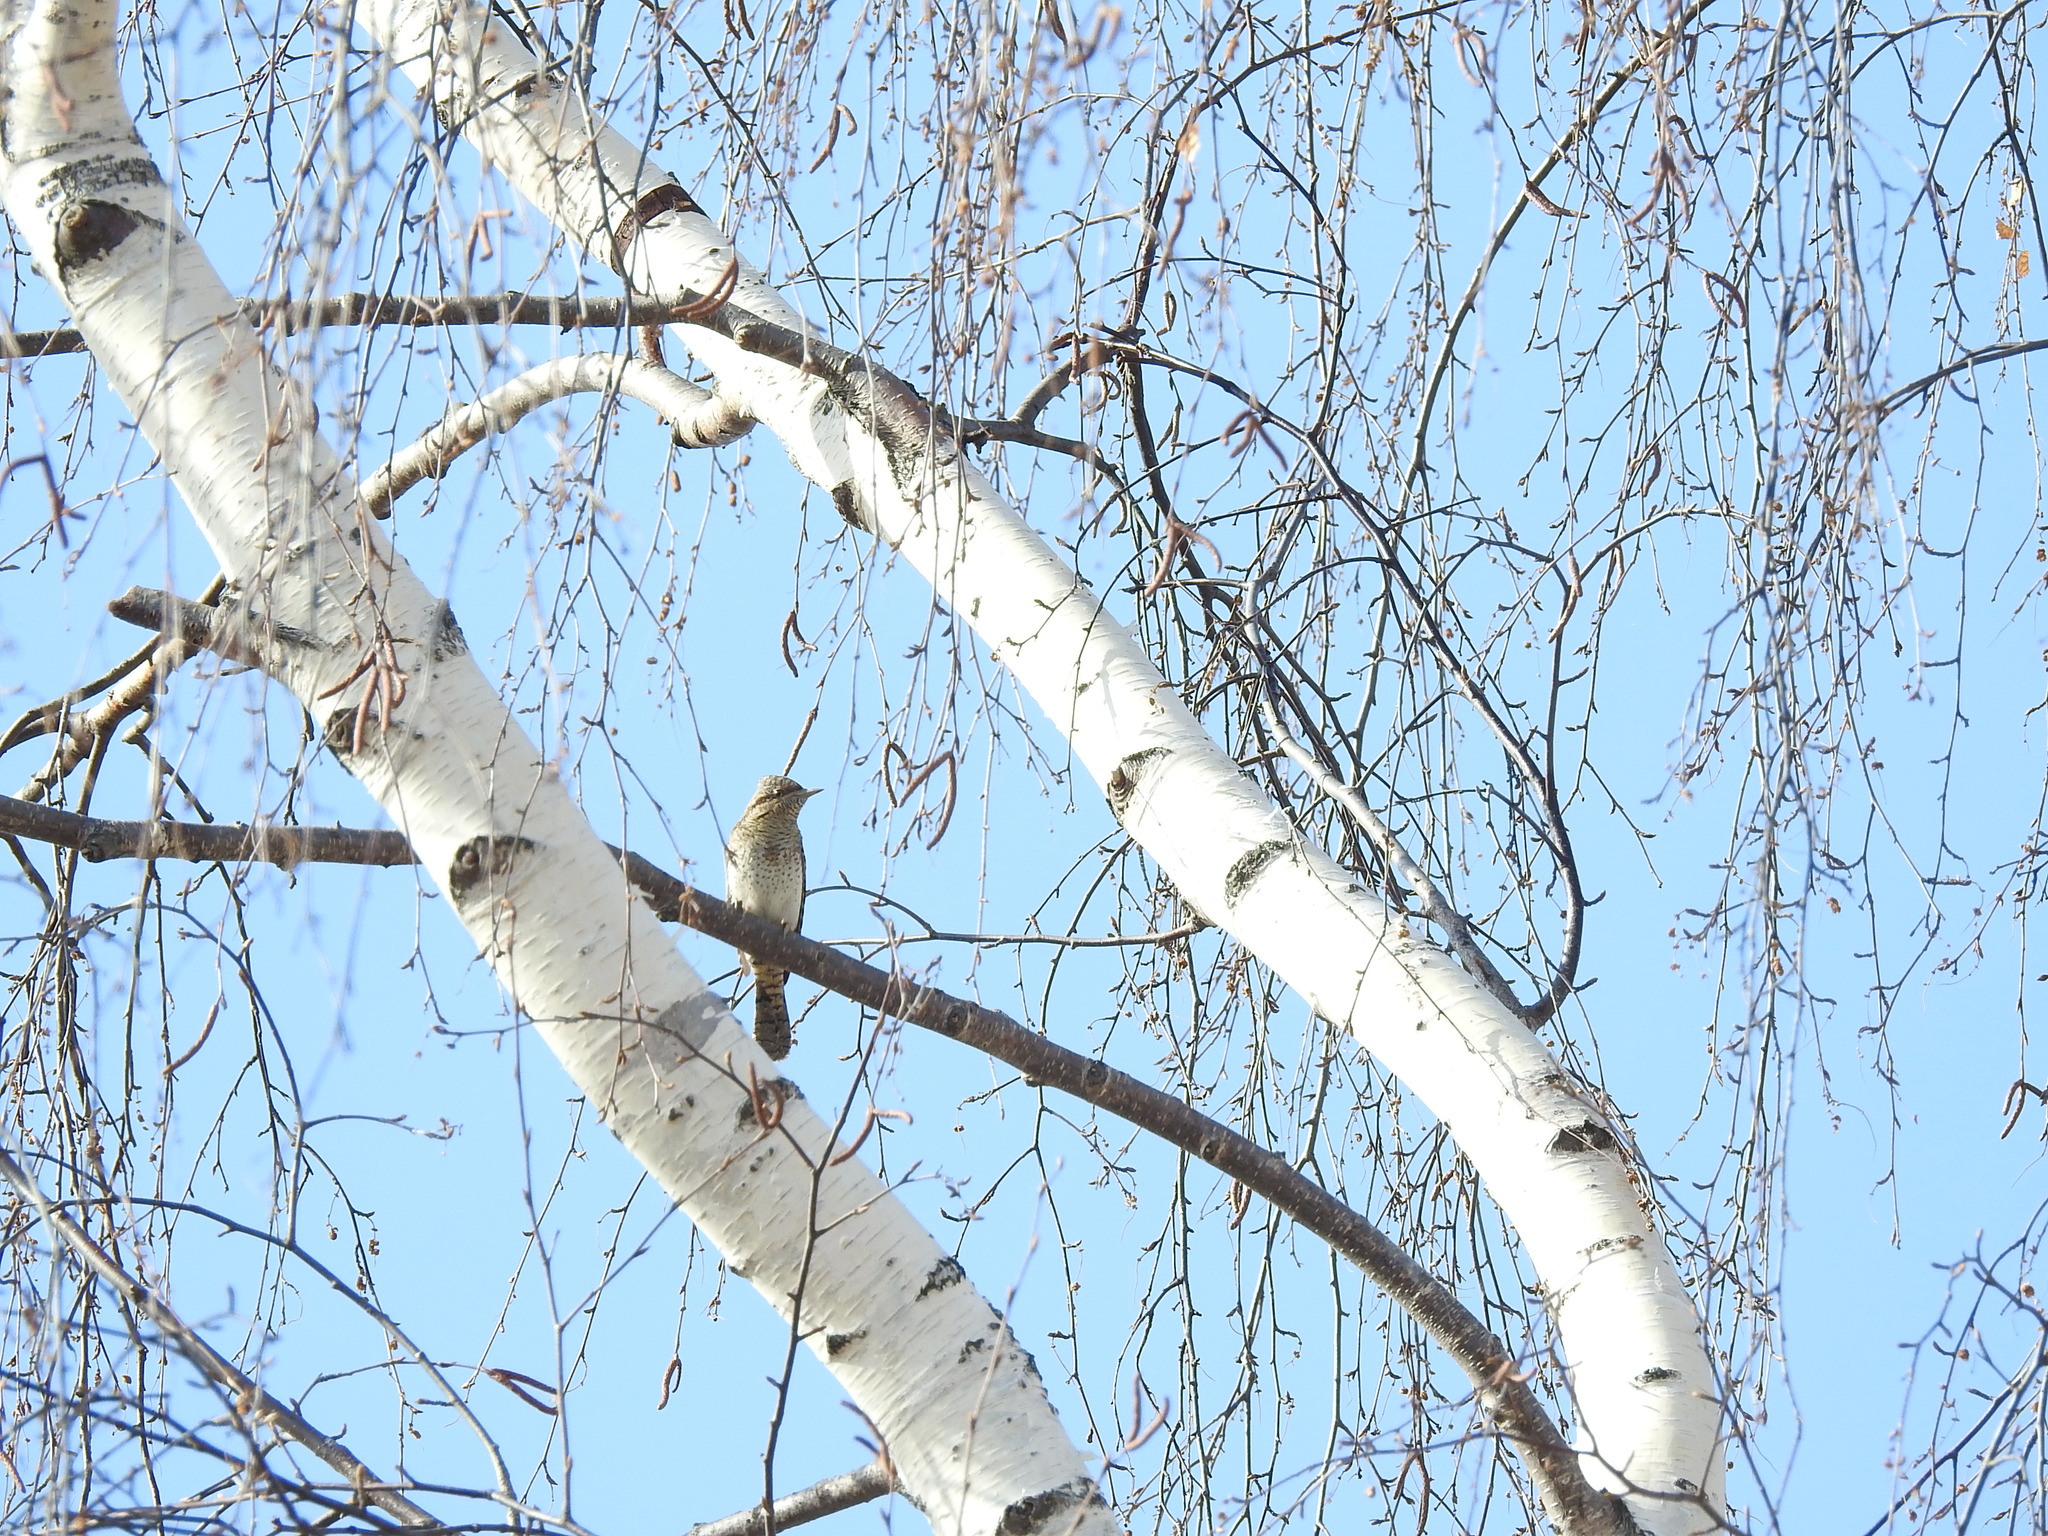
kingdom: Animalia
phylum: Chordata
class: Aves
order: Piciformes
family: Picidae
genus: Jynx
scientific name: Jynx torquilla
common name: Eurasian wryneck
